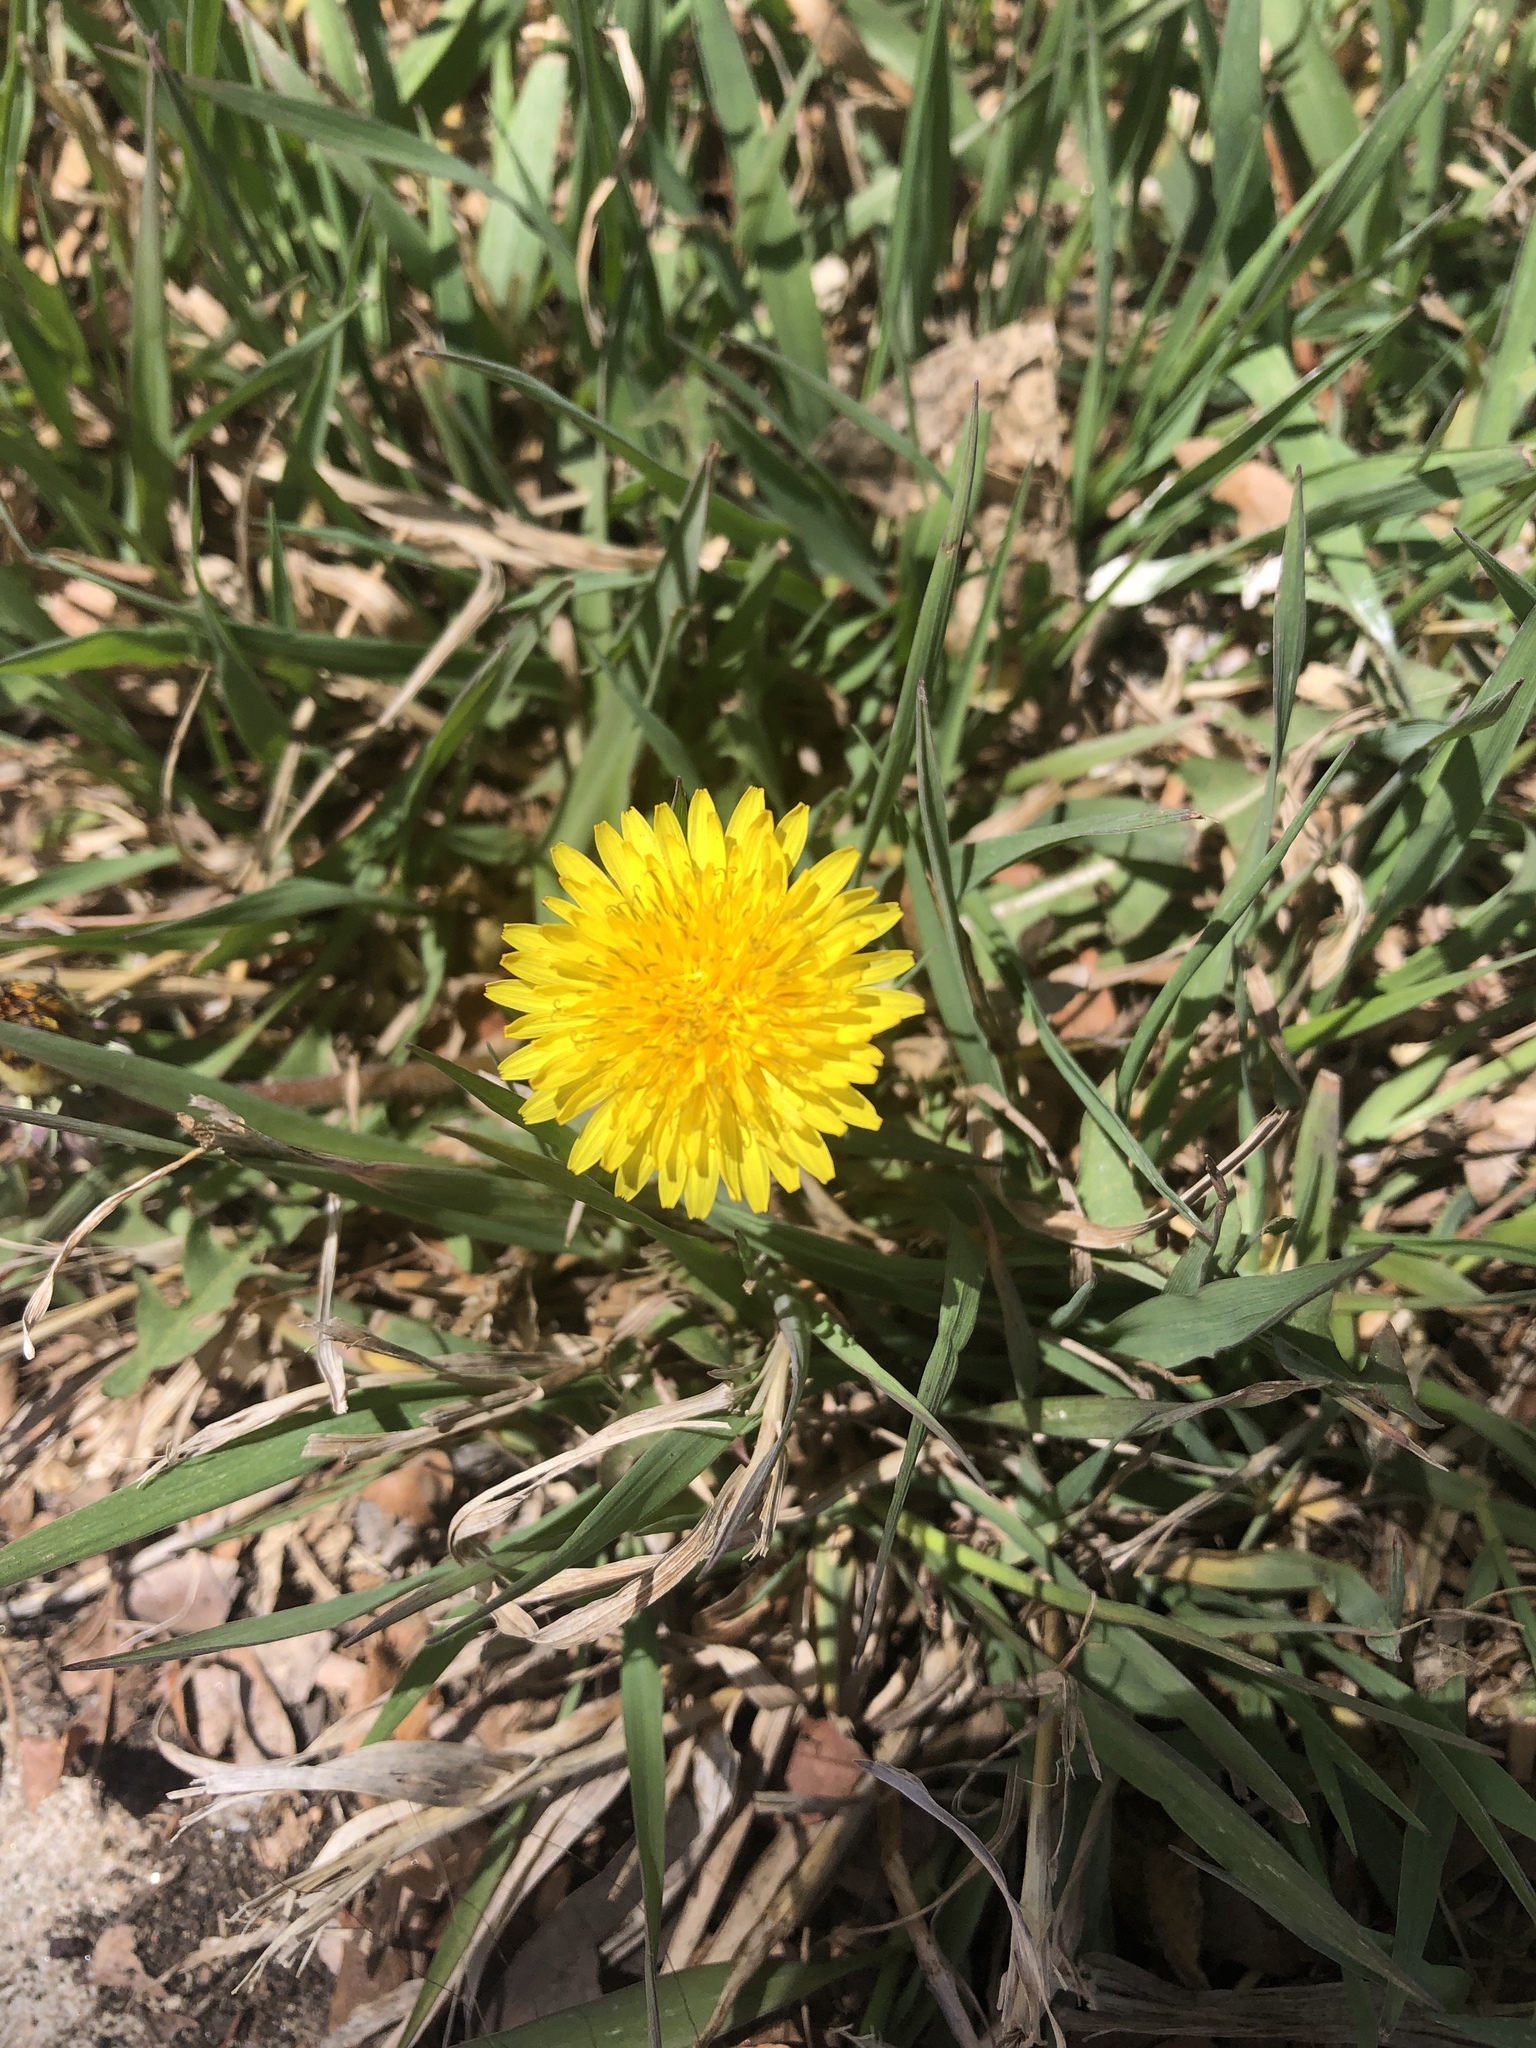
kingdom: Plantae
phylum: Tracheophyta
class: Magnoliopsida
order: Asterales
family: Asteraceae
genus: Taraxacum
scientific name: Taraxacum officinale
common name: Common dandelion
